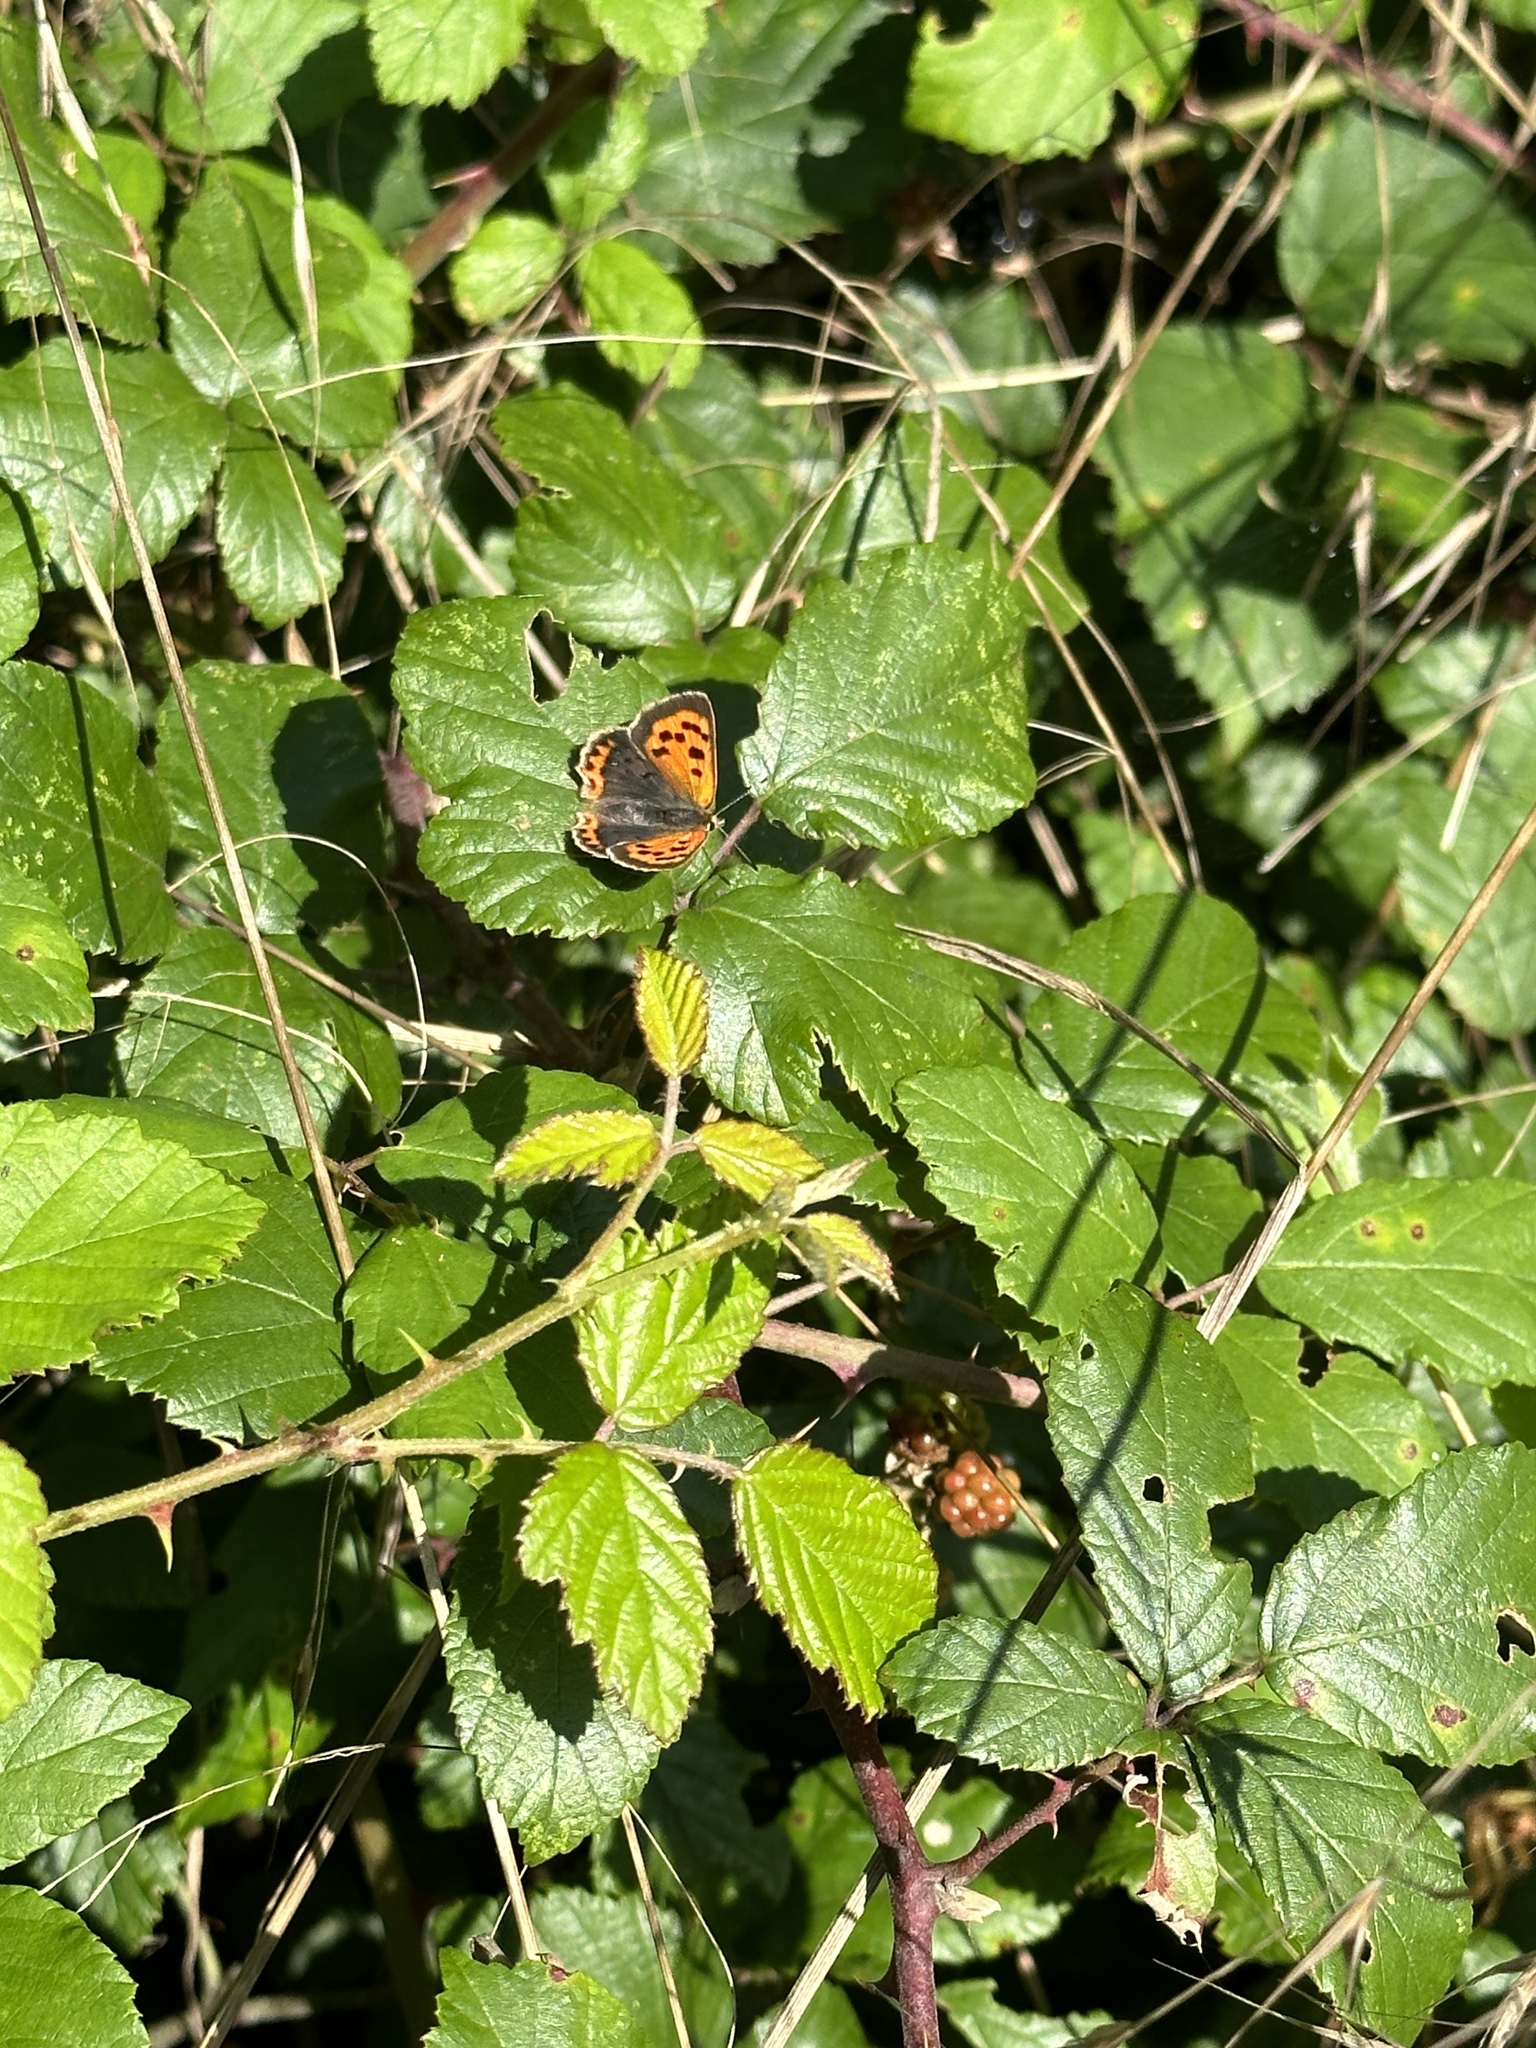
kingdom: Animalia
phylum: Arthropoda
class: Insecta
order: Lepidoptera
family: Lycaenidae
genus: Lycaena
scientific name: Lycaena phlaeas
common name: Small copper
